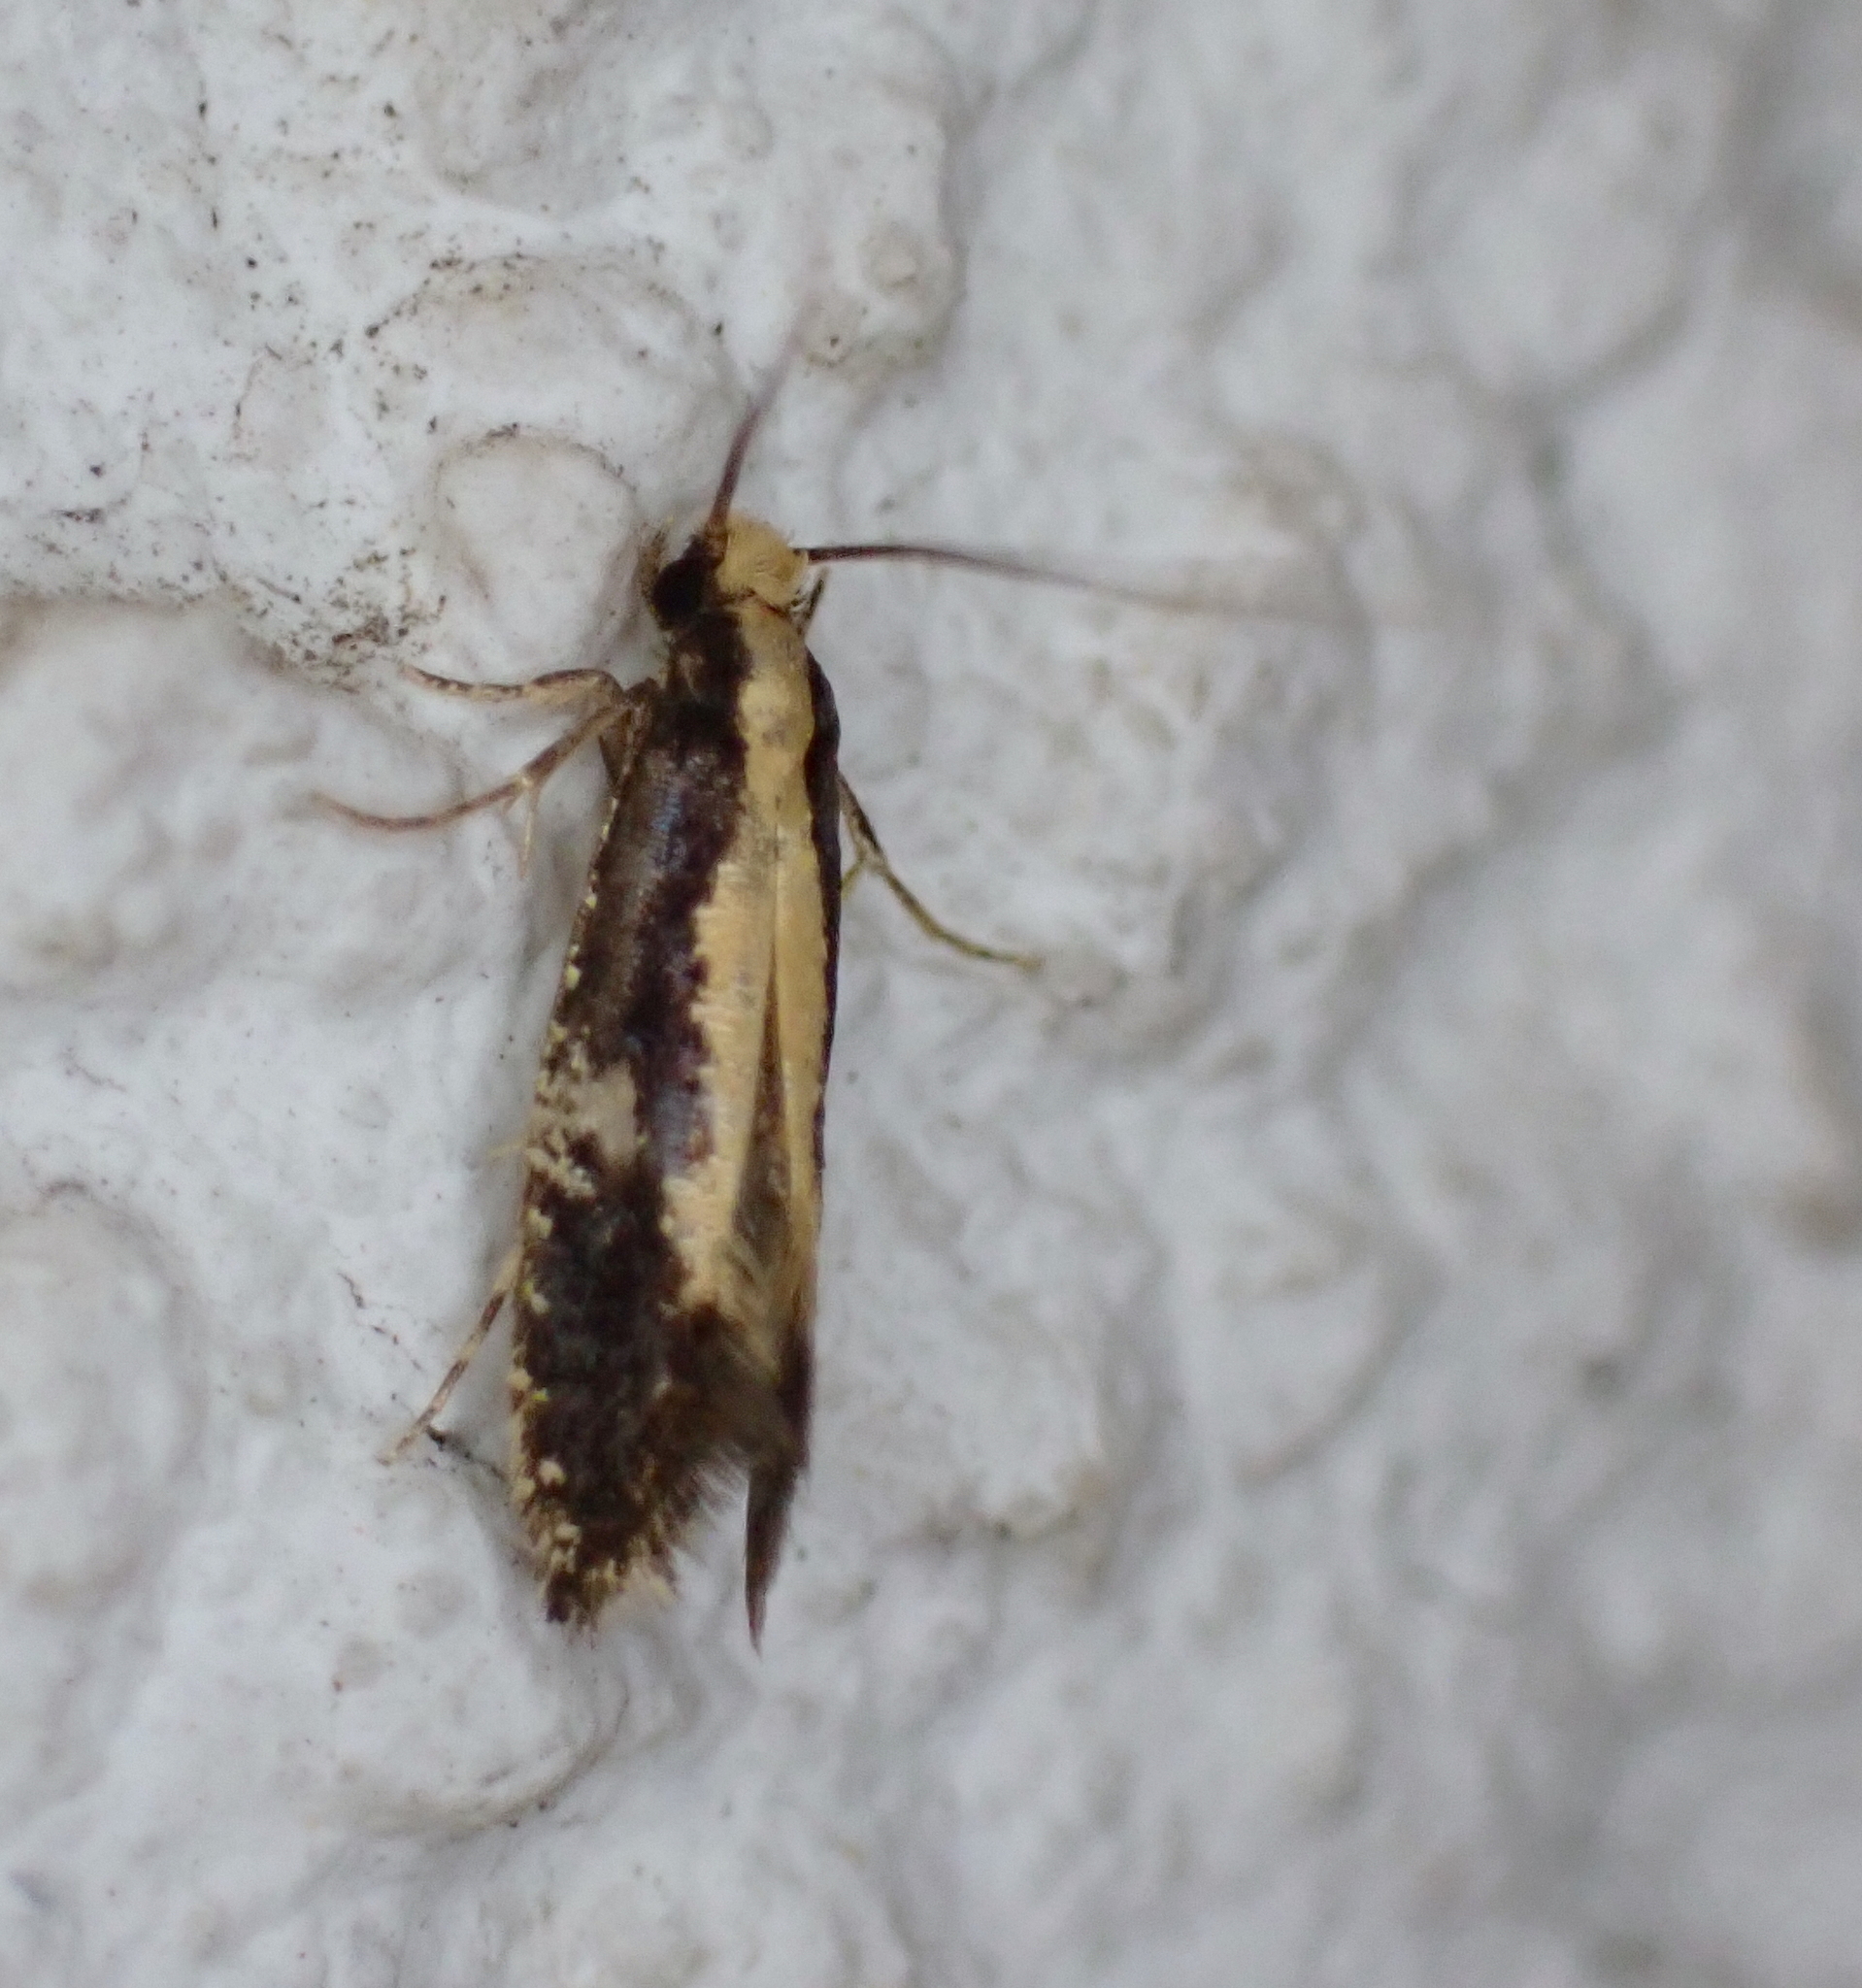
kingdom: Animalia
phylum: Arthropoda
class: Insecta
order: Lepidoptera
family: Tineidae
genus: Monopis
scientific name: Monopis obviella
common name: Tineid moth
